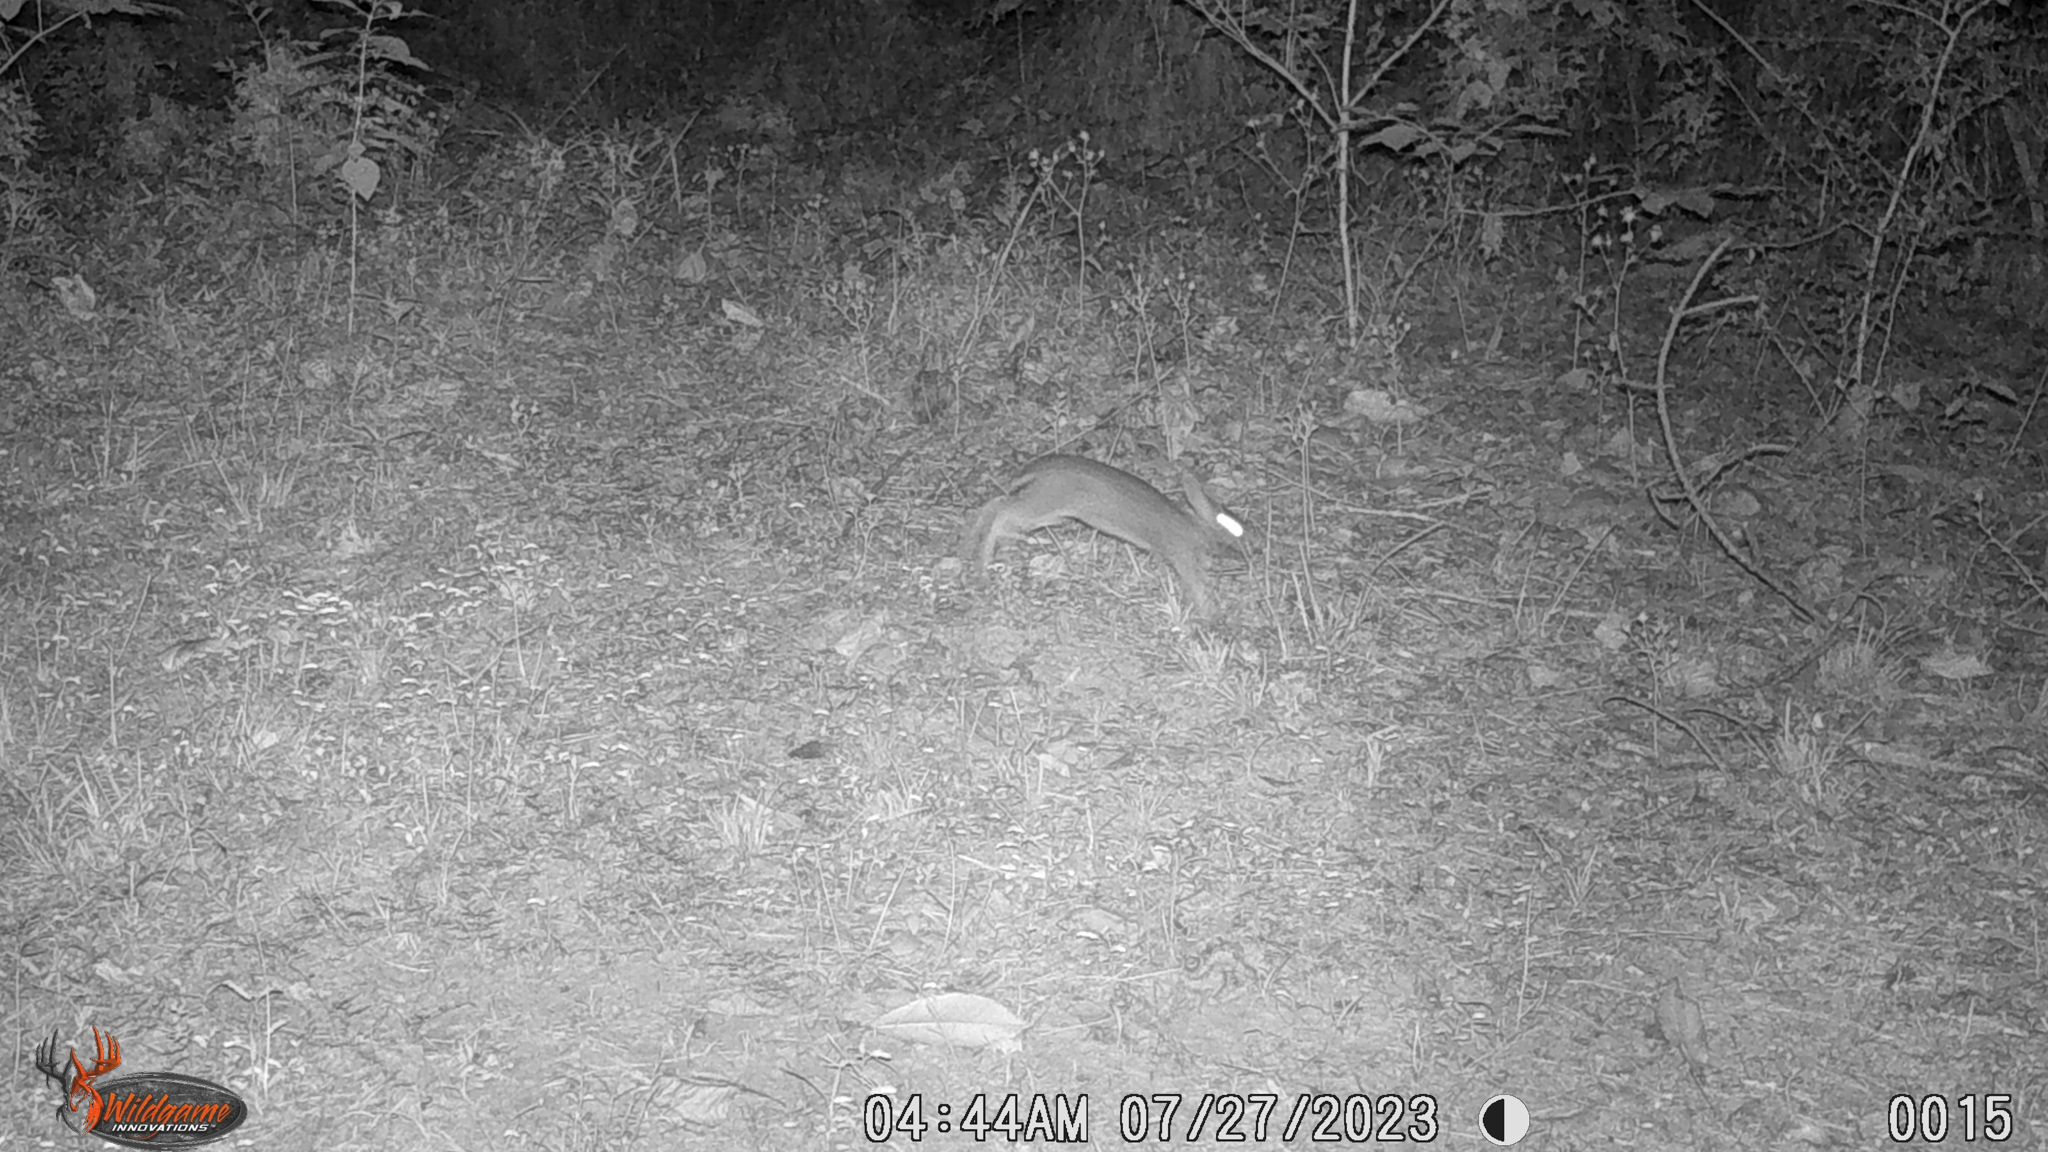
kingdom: Animalia
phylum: Chordata
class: Mammalia
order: Lagomorpha
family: Leporidae
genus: Sylvilagus
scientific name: Sylvilagus floridanus
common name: Eastern cottontail
